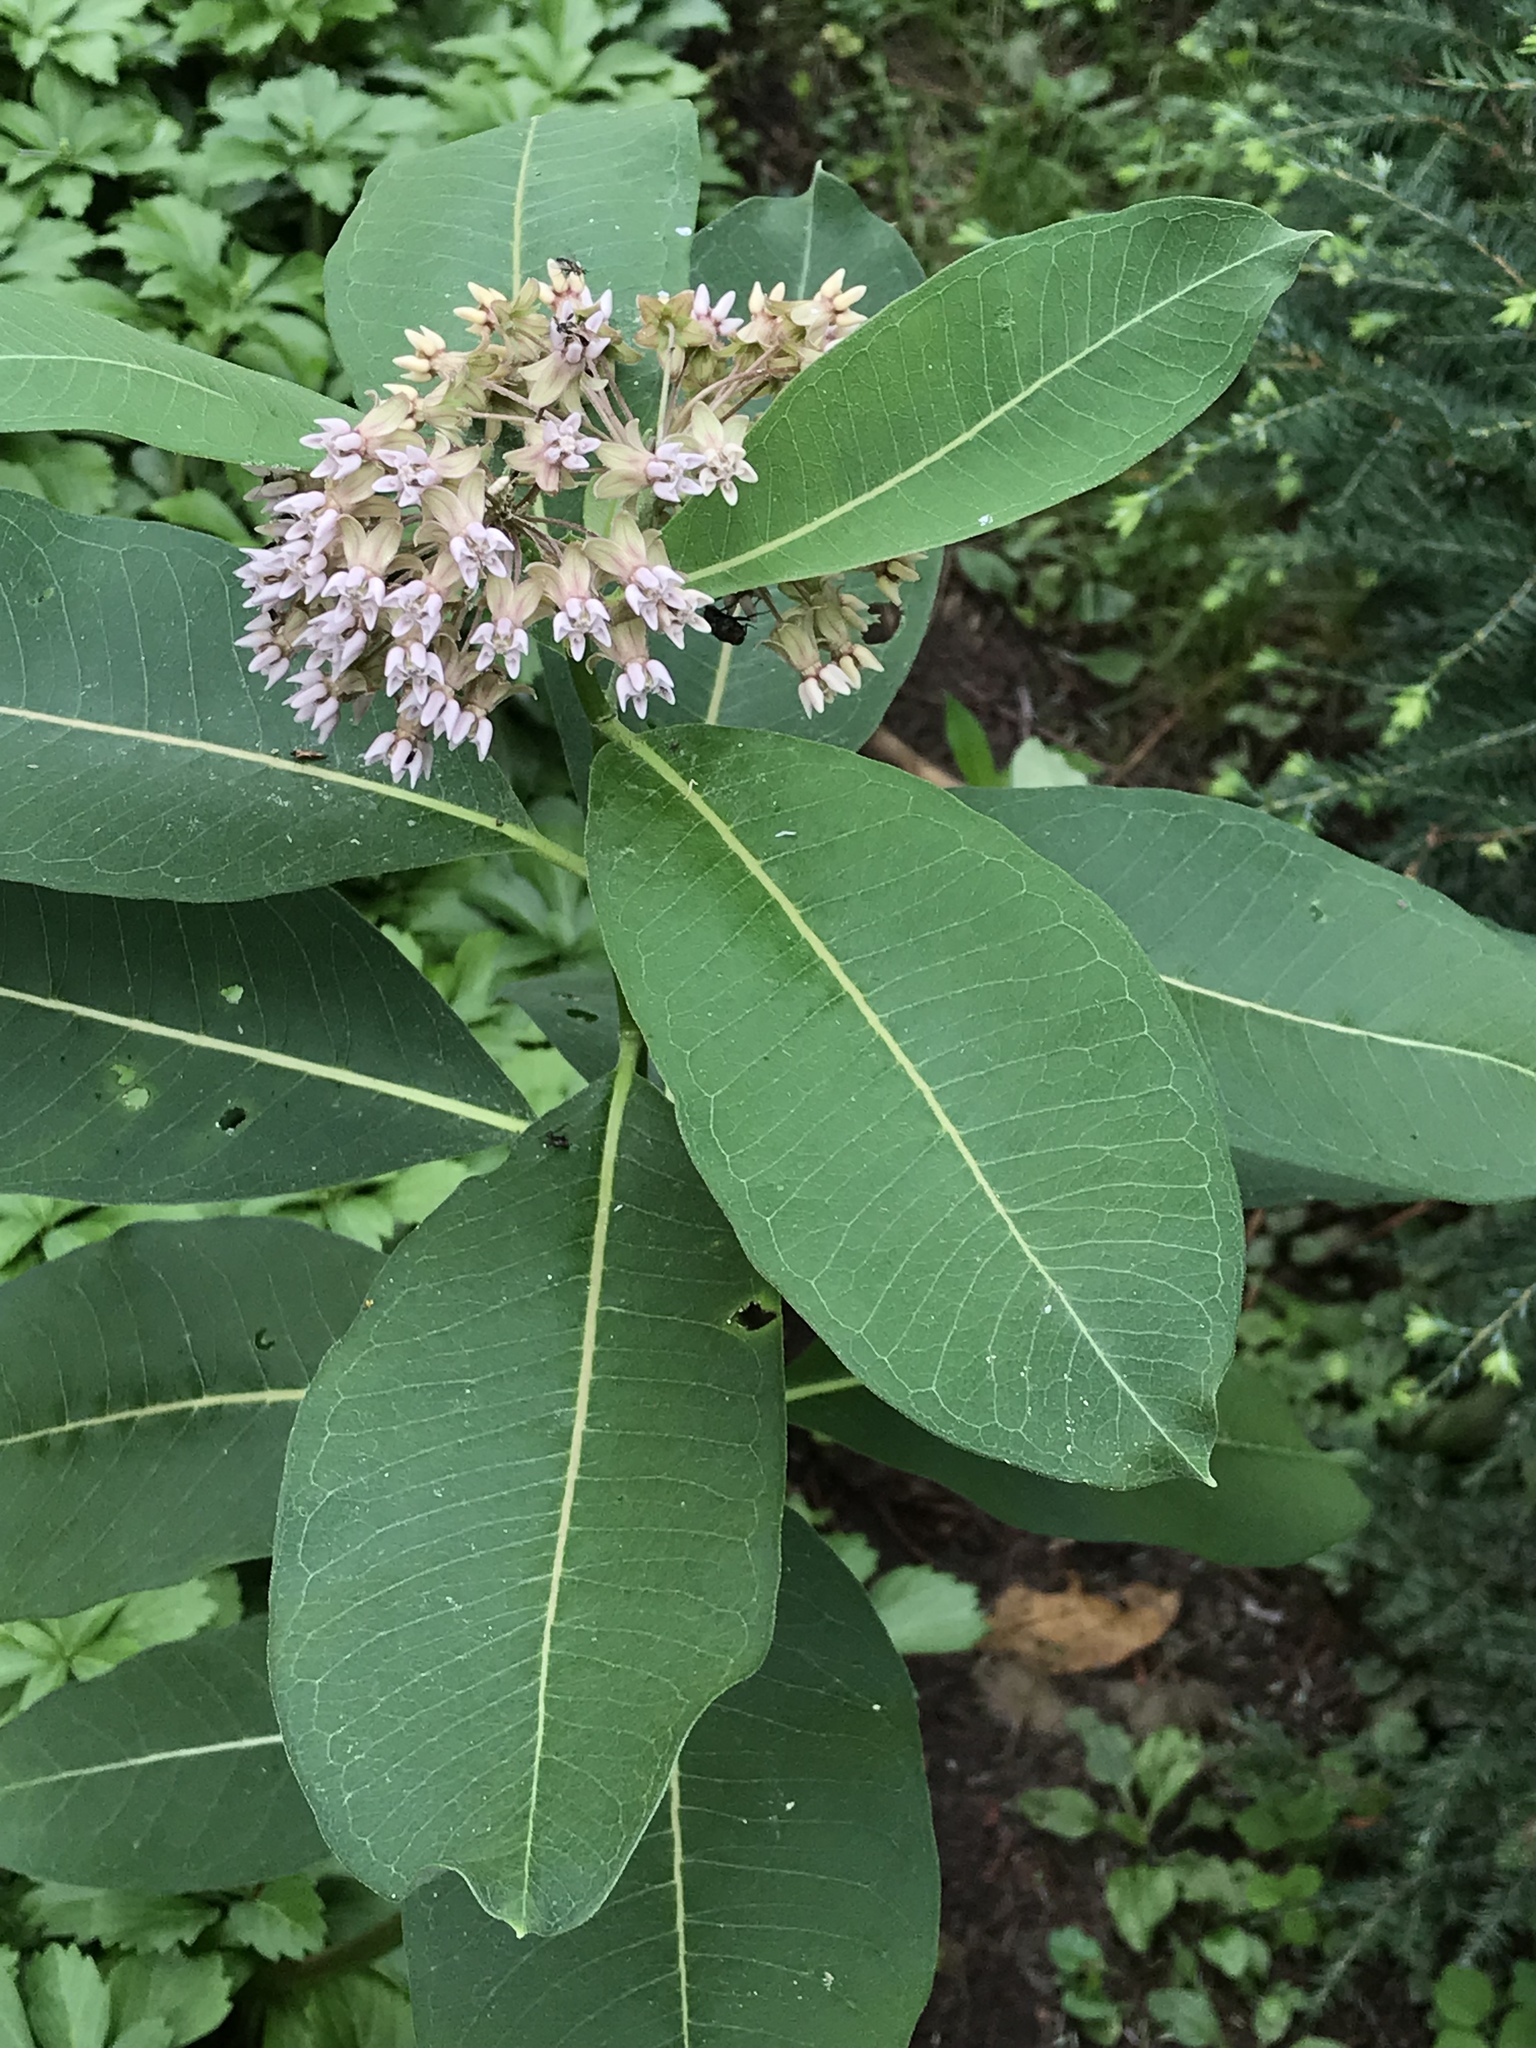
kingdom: Plantae
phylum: Tracheophyta
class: Magnoliopsida
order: Gentianales
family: Apocynaceae
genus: Asclepias
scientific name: Asclepias syriaca
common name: Common milkweed
